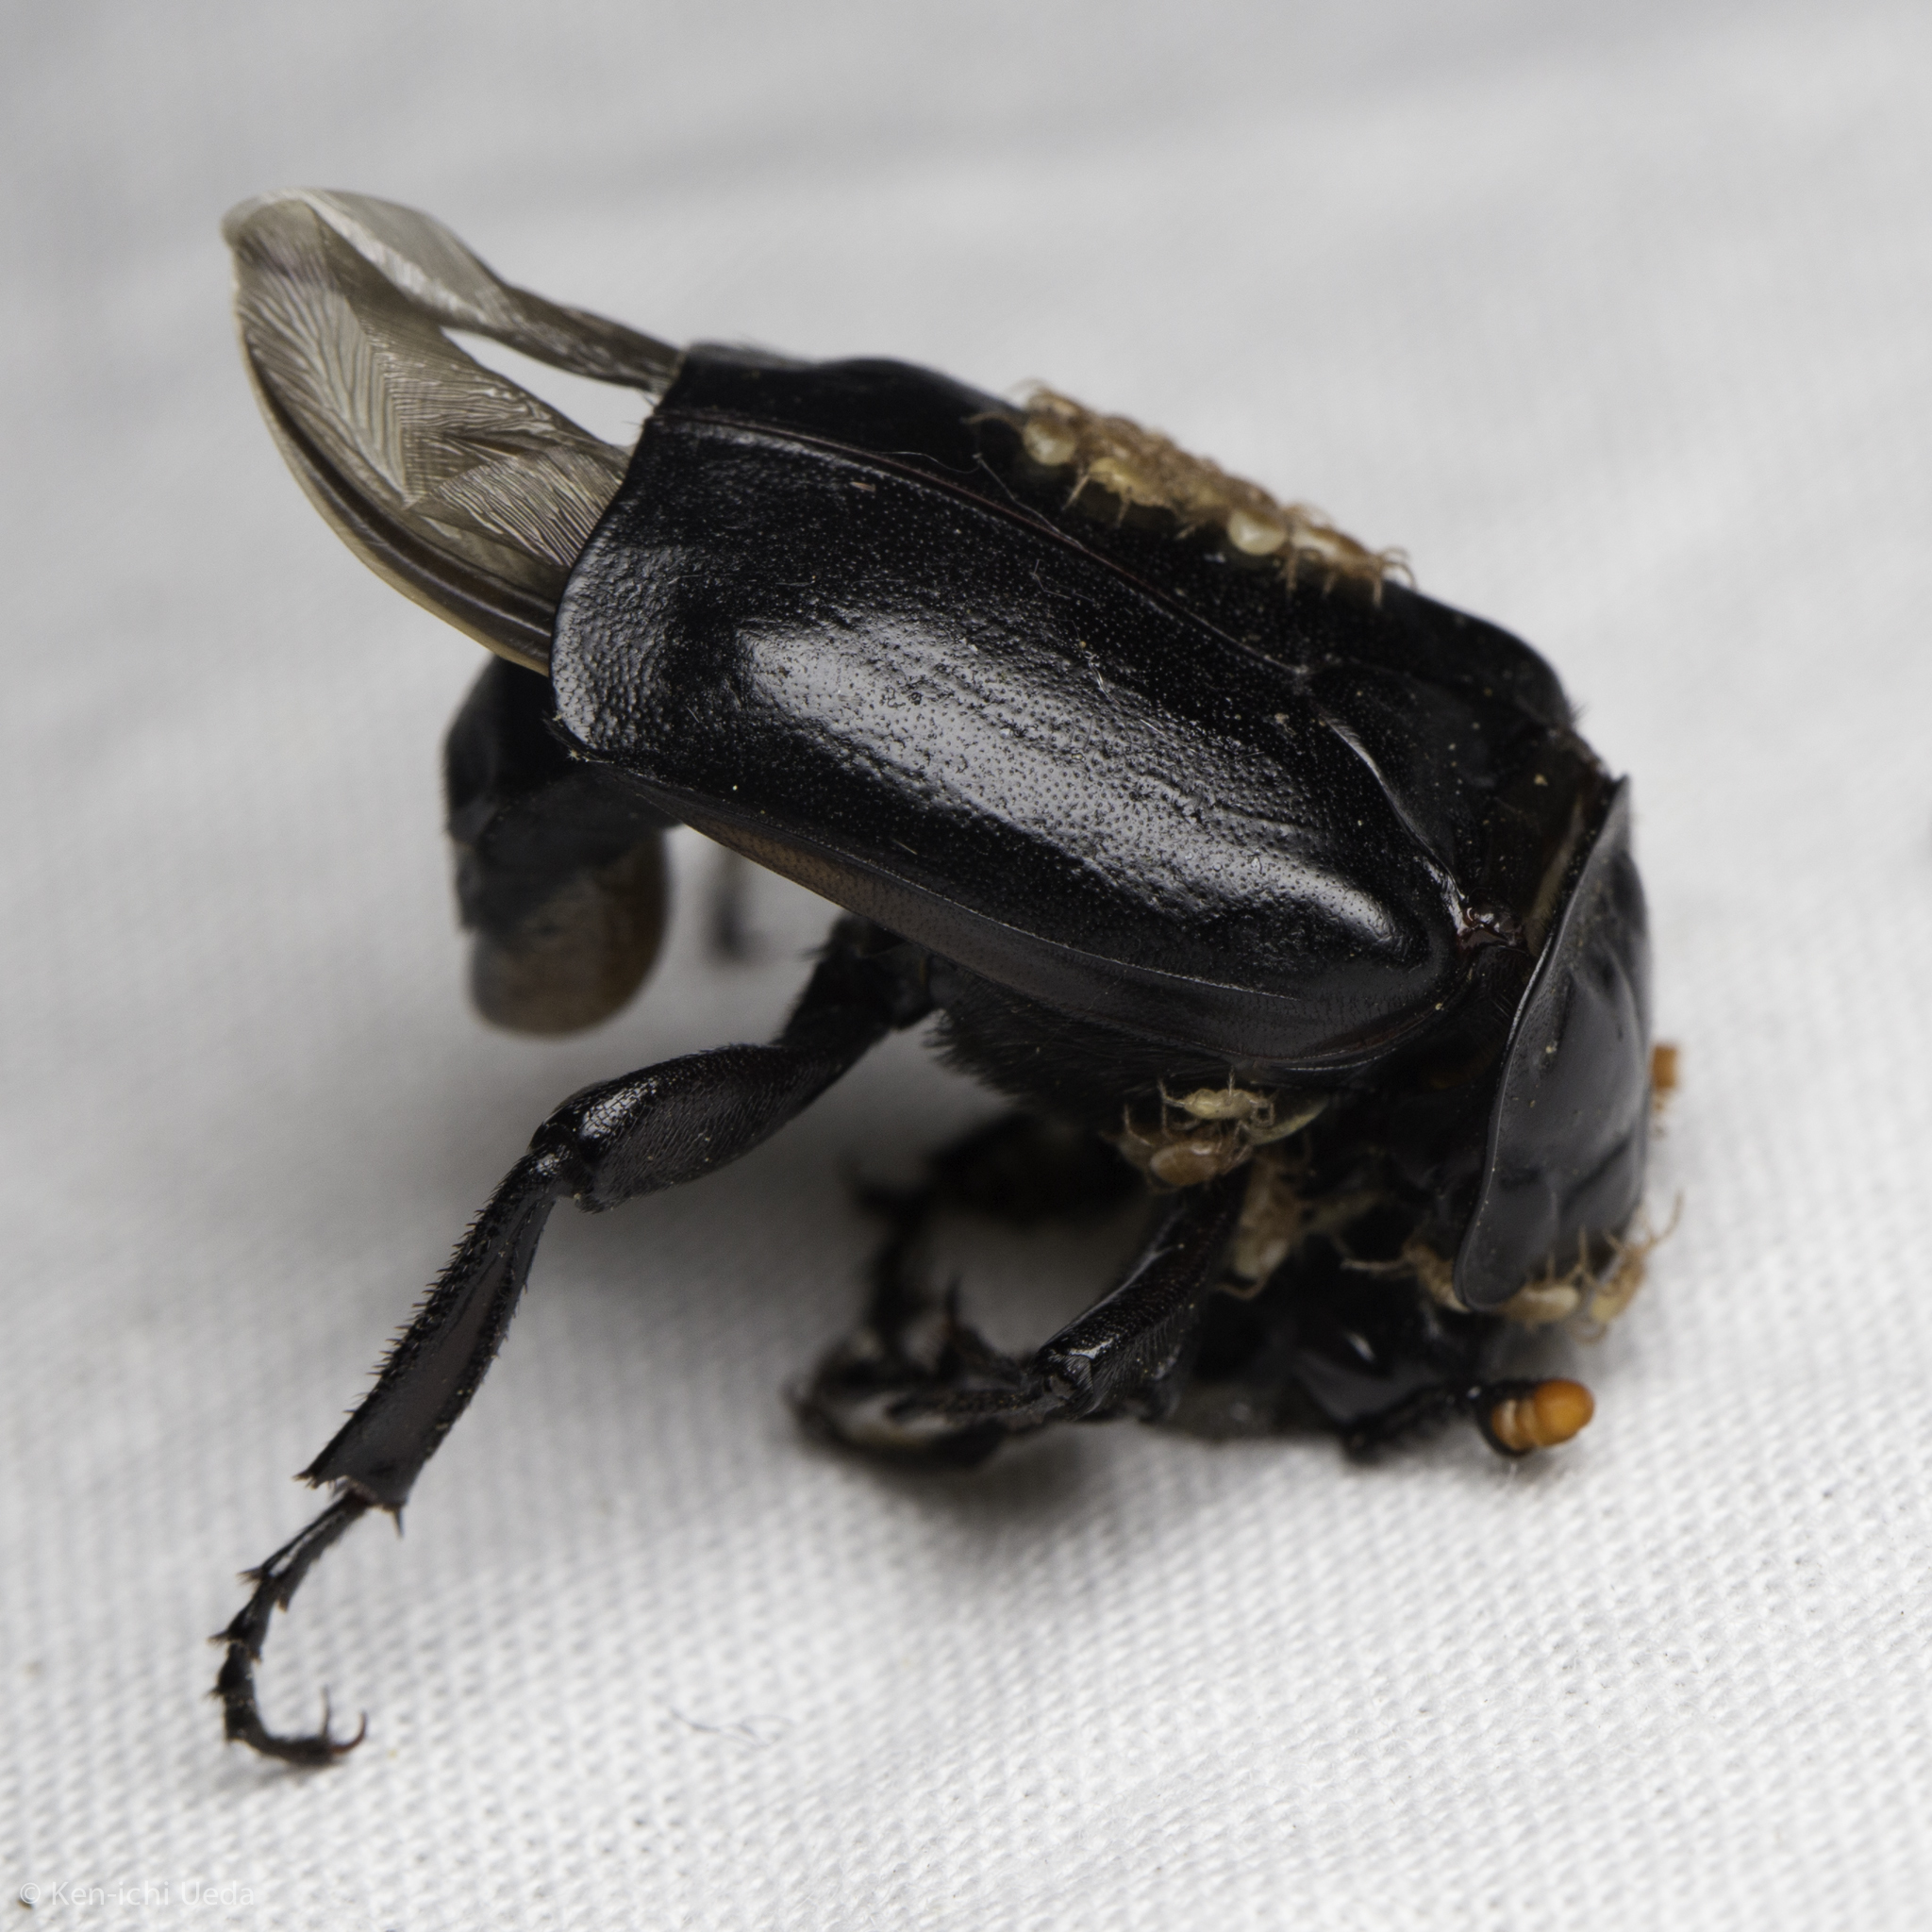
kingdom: Animalia
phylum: Arthropoda
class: Insecta
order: Coleoptera
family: Staphylinidae
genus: Nicrophorus
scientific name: Nicrophorus nigrita
